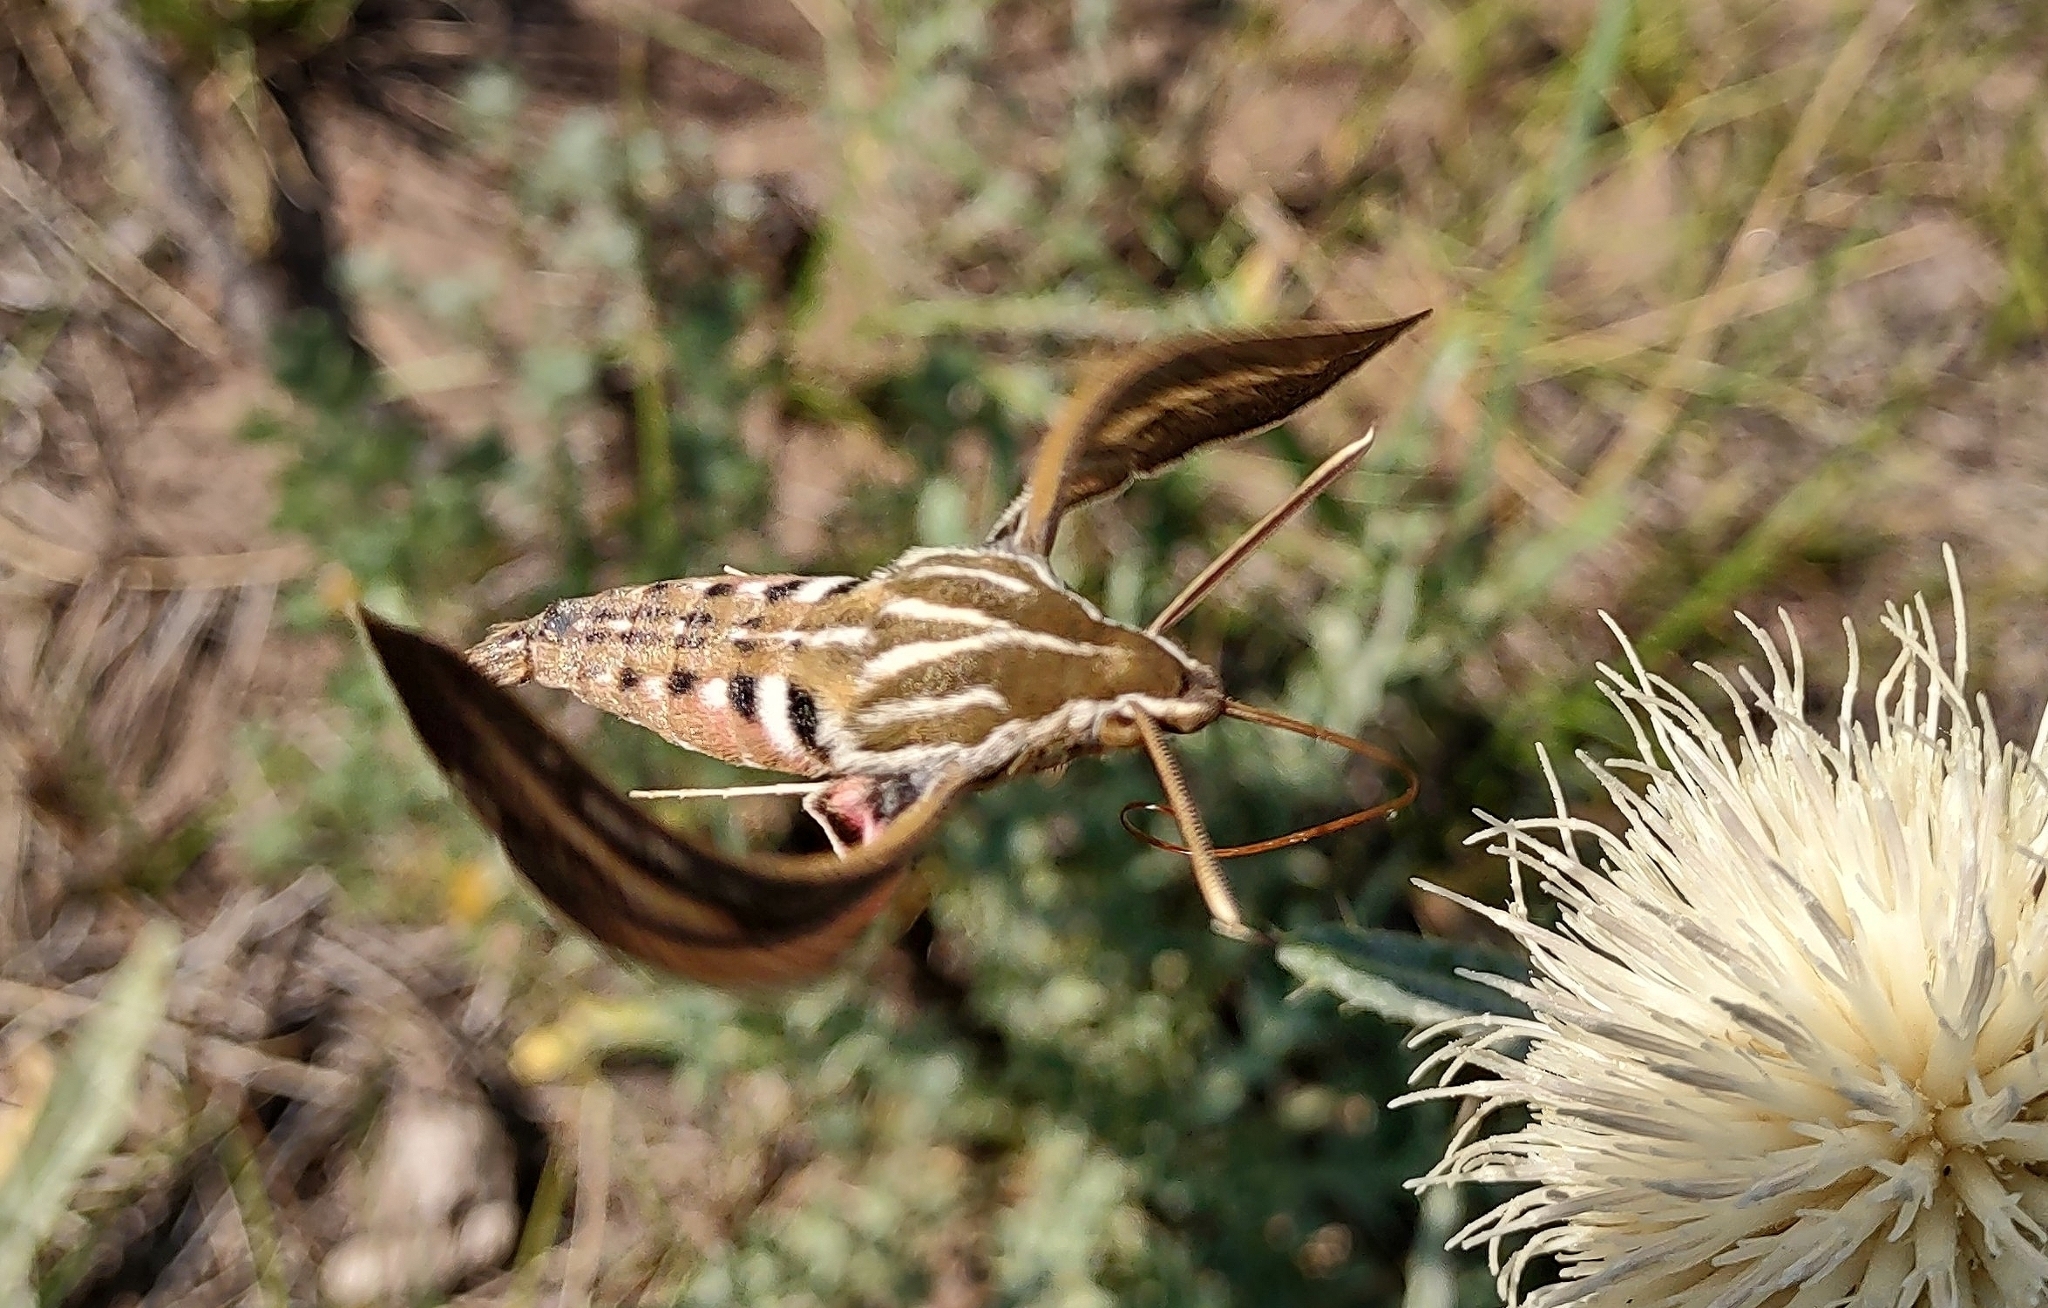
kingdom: Animalia
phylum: Arthropoda
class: Insecta
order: Lepidoptera
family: Sphingidae
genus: Hyles
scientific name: Hyles lineata
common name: White-lined sphinx
